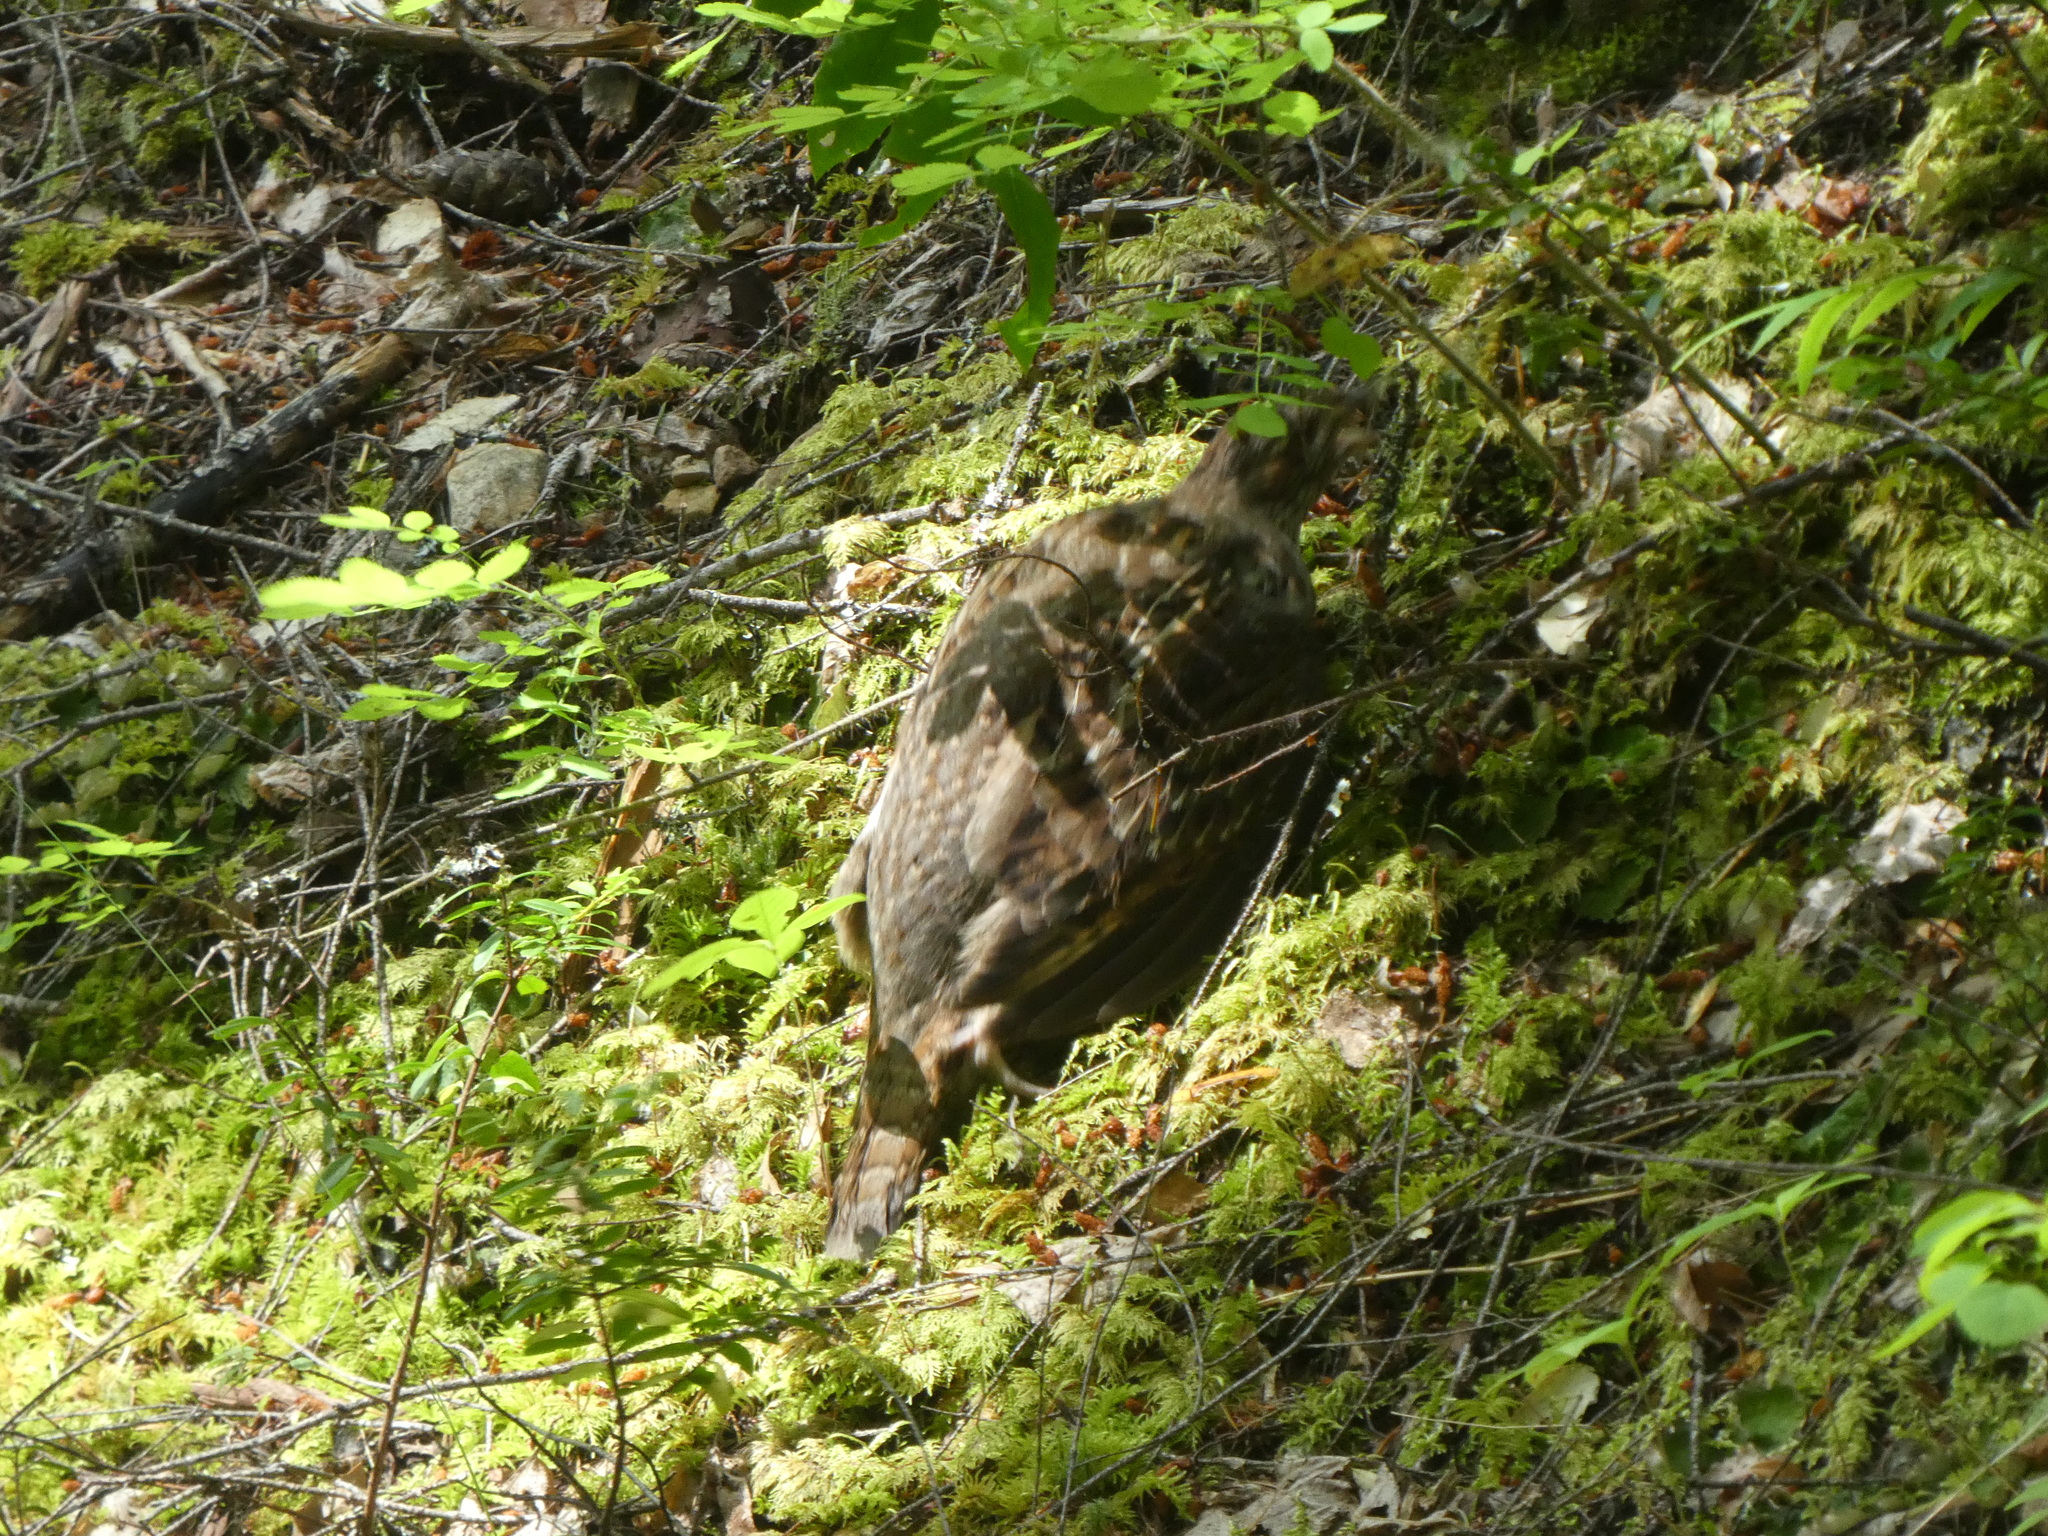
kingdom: Animalia
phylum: Chordata
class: Aves
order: Galliformes
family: Phasianidae
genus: Bonasa
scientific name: Bonasa umbellus
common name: Ruffed grouse
